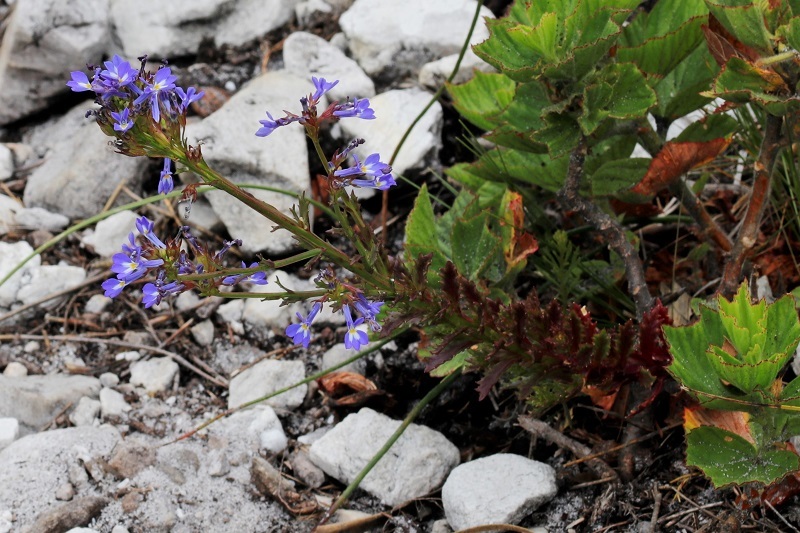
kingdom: Plantae
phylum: Tracheophyta
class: Magnoliopsida
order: Asterales
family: Campanulaceae
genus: Lobelia
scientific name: Lobelia comosa
